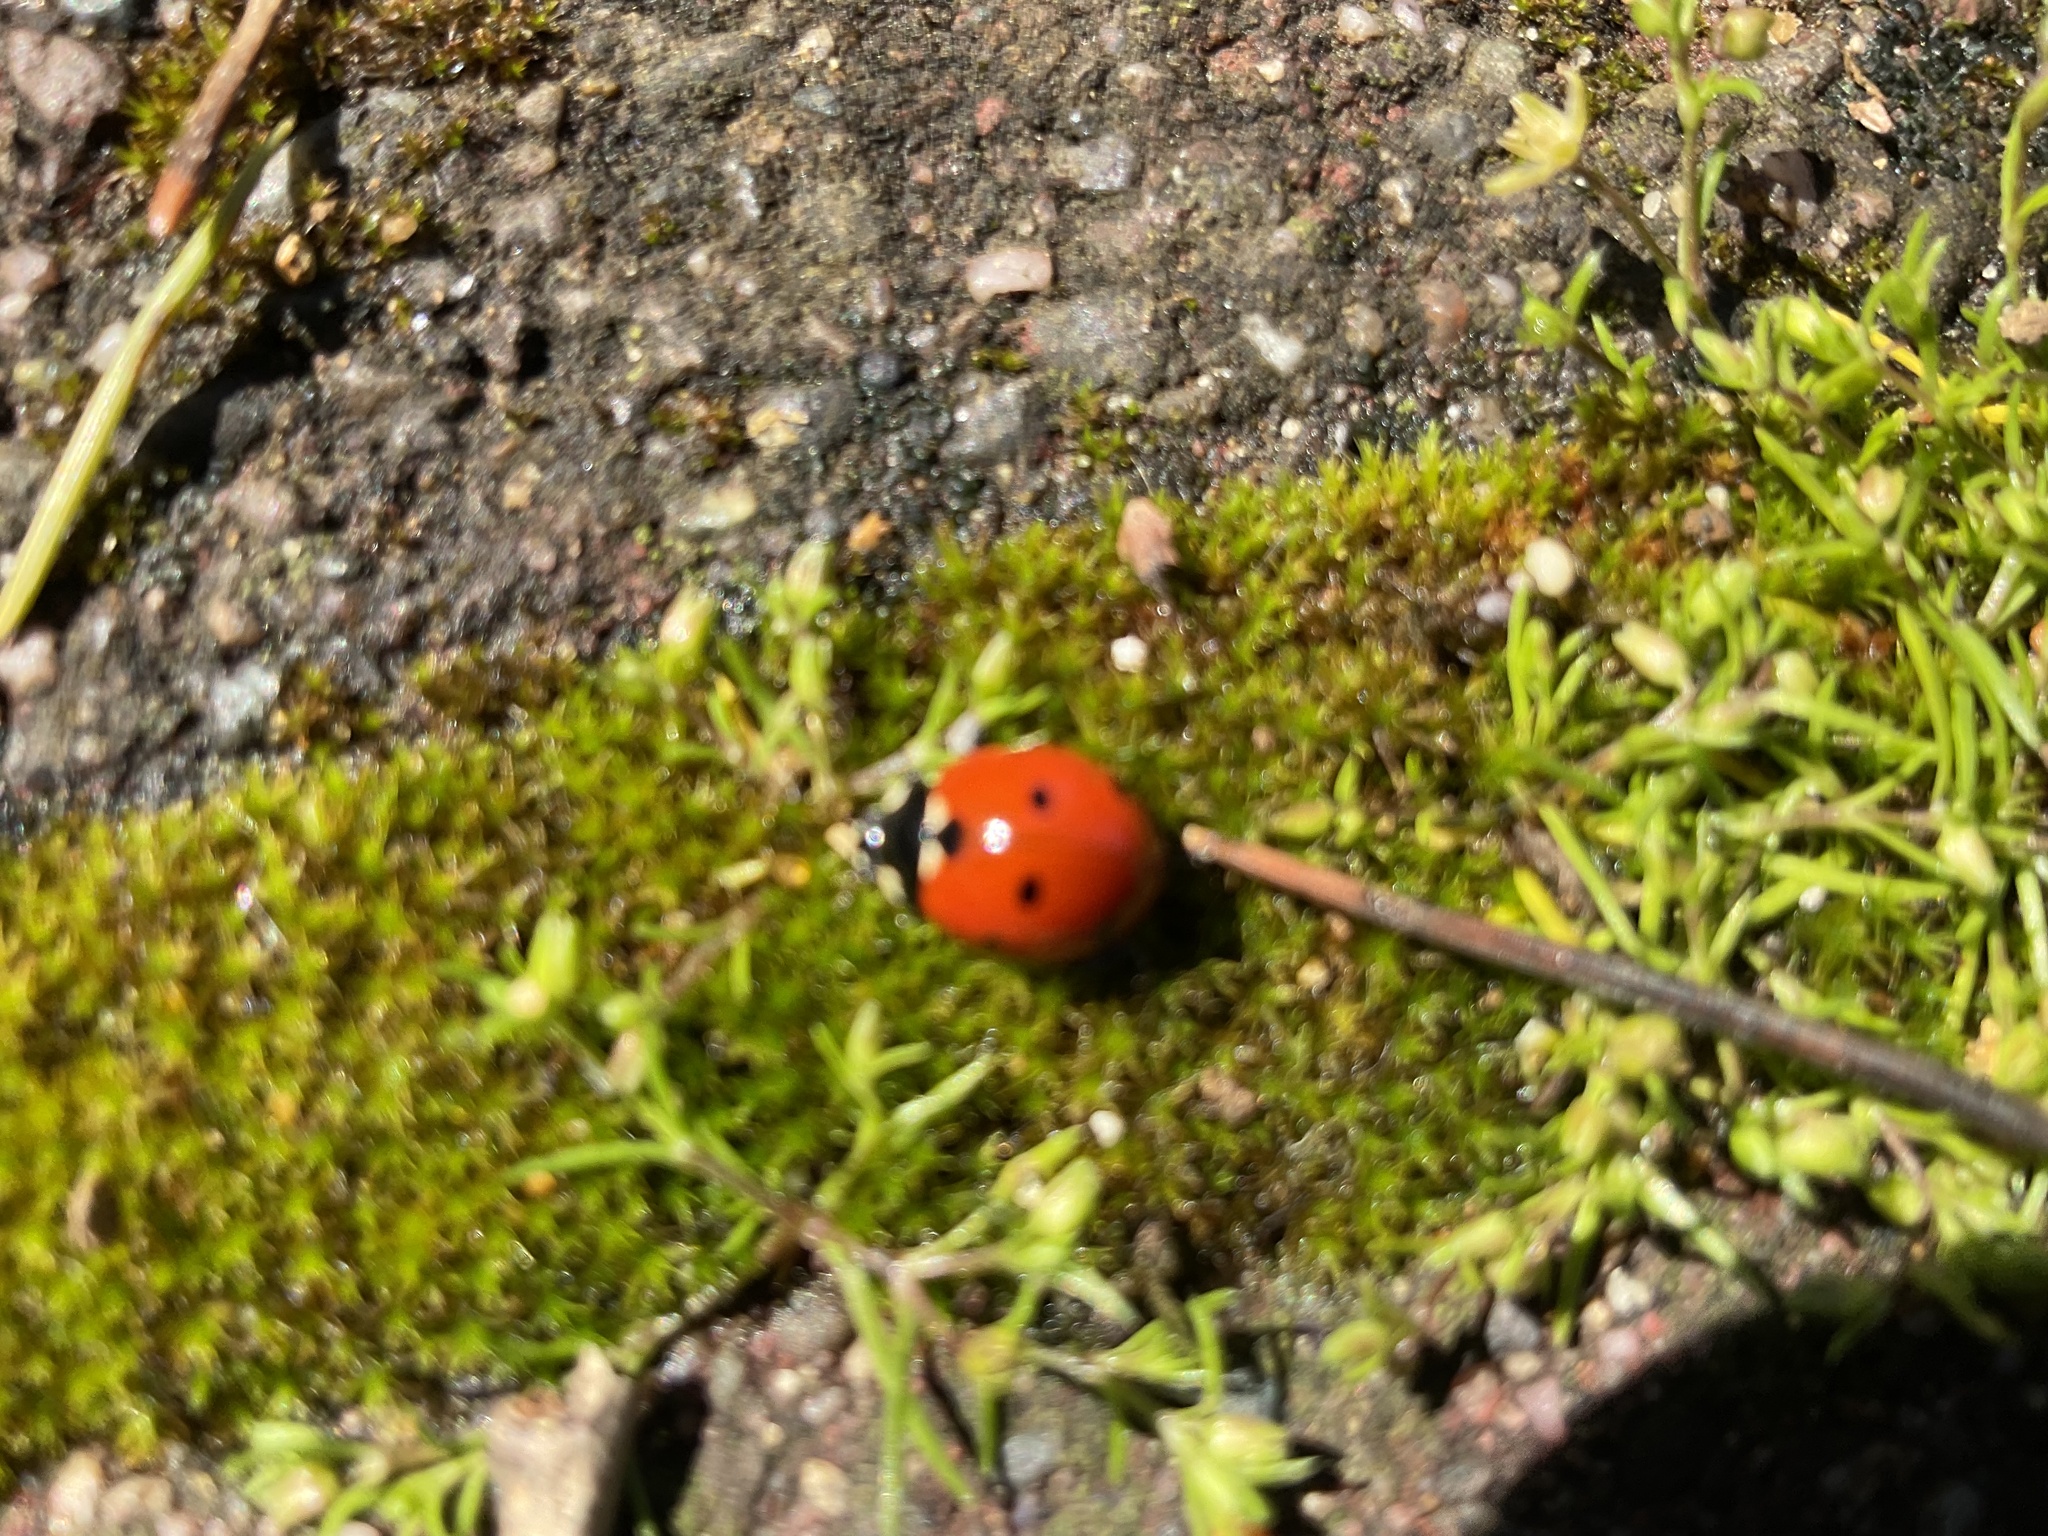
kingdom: Animalia
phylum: Arthropoda
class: Insecta
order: Coleoptera
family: Coccinellidae
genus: Coccinella
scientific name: Coccinella septempunctata
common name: Sevenspotted lady beetle
